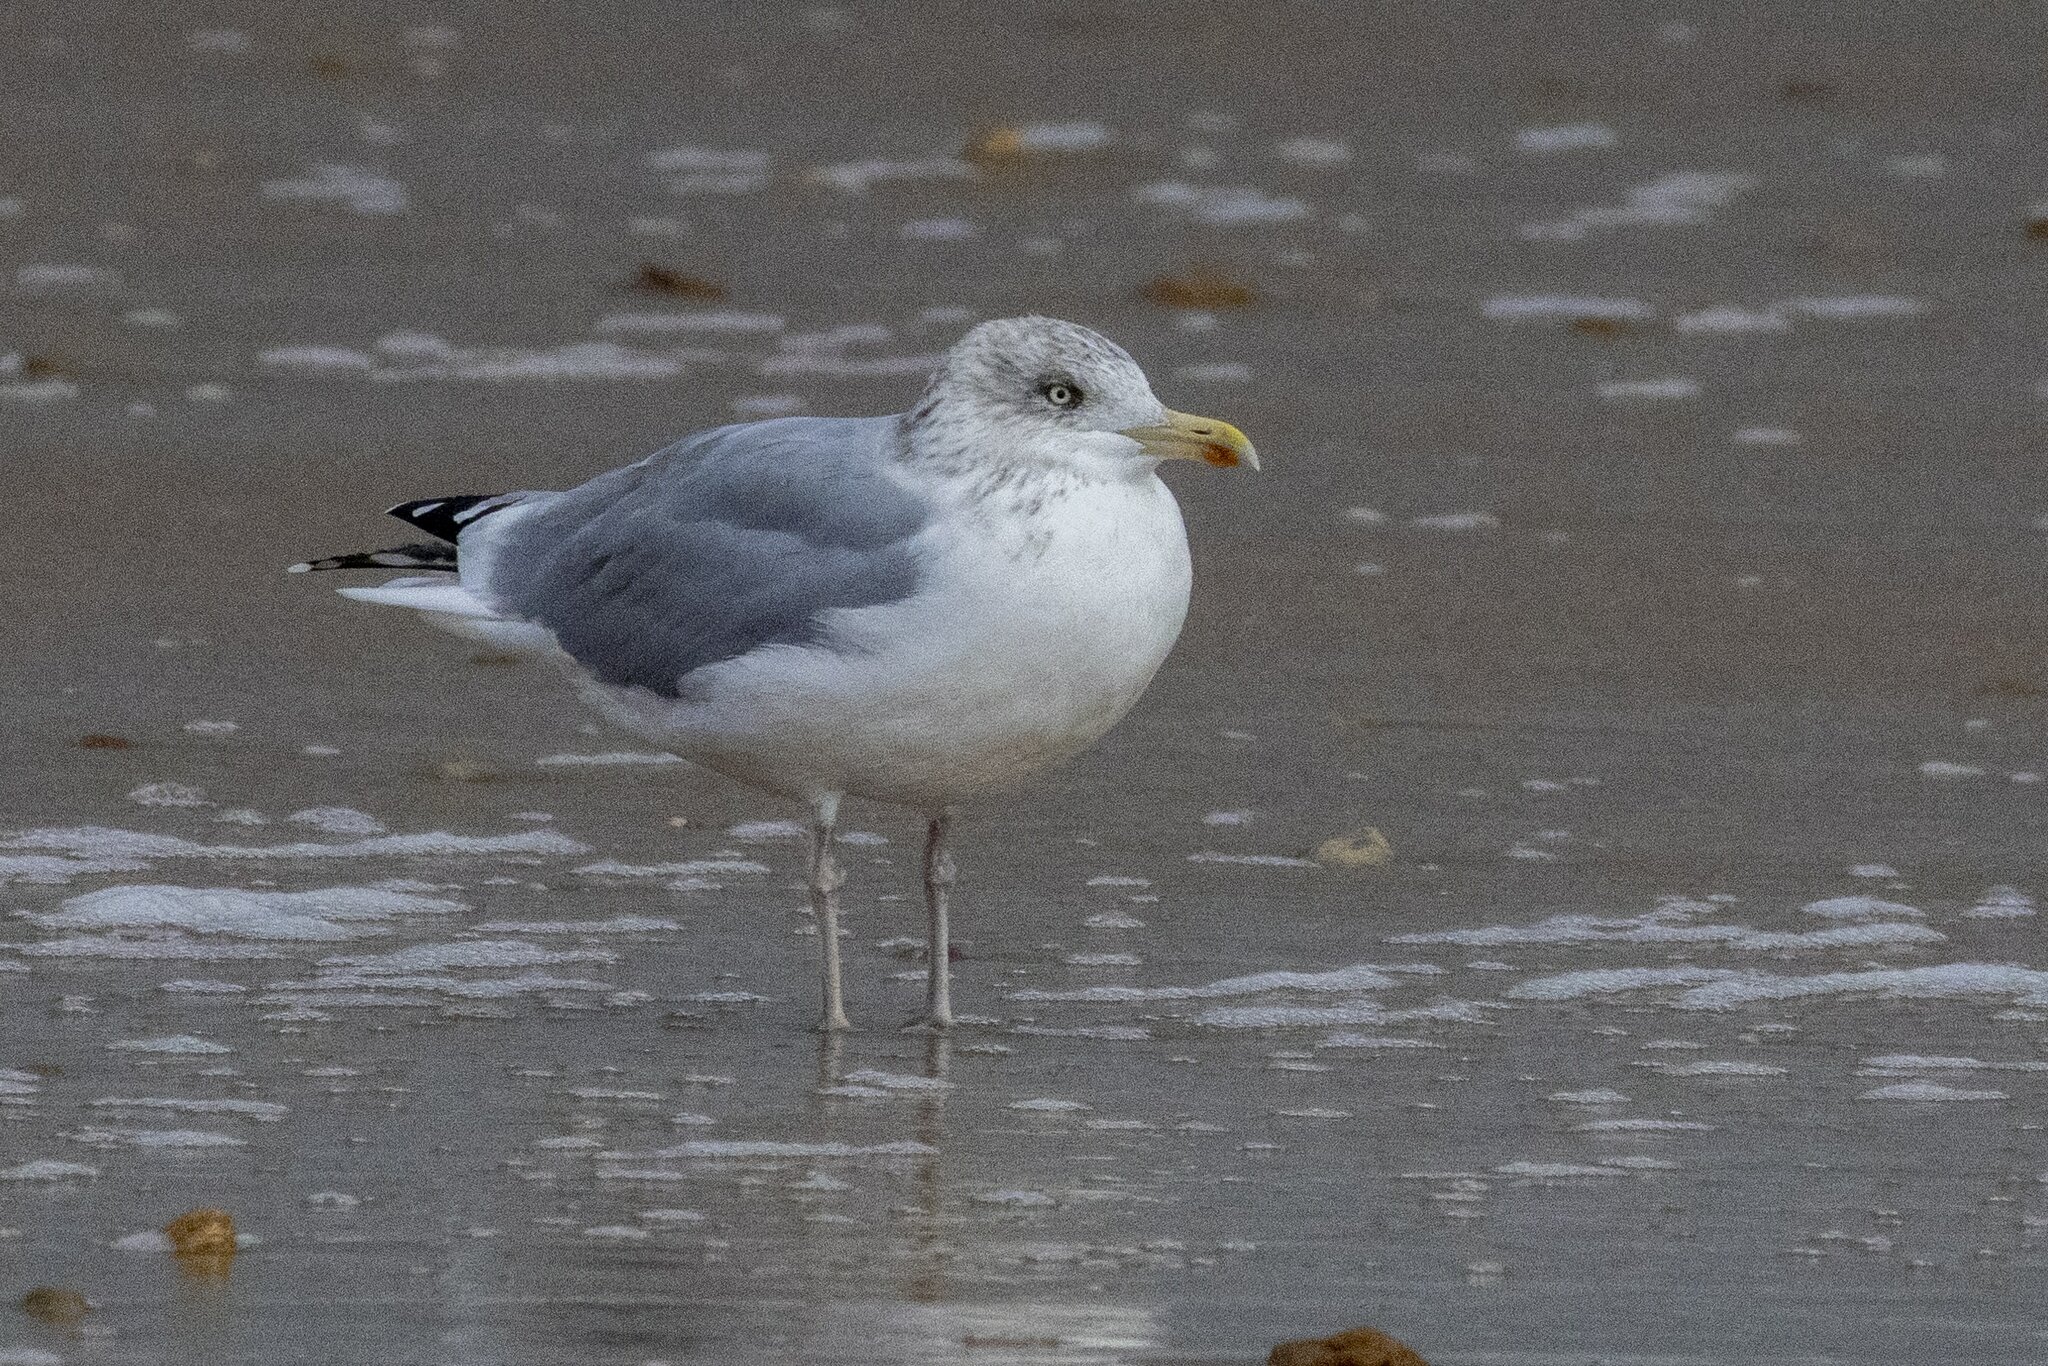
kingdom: Animalia
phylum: Chordata
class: Aves
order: Charadriiformes
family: Laridae
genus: Larus
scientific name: Larus argentatus
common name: Herring gull
